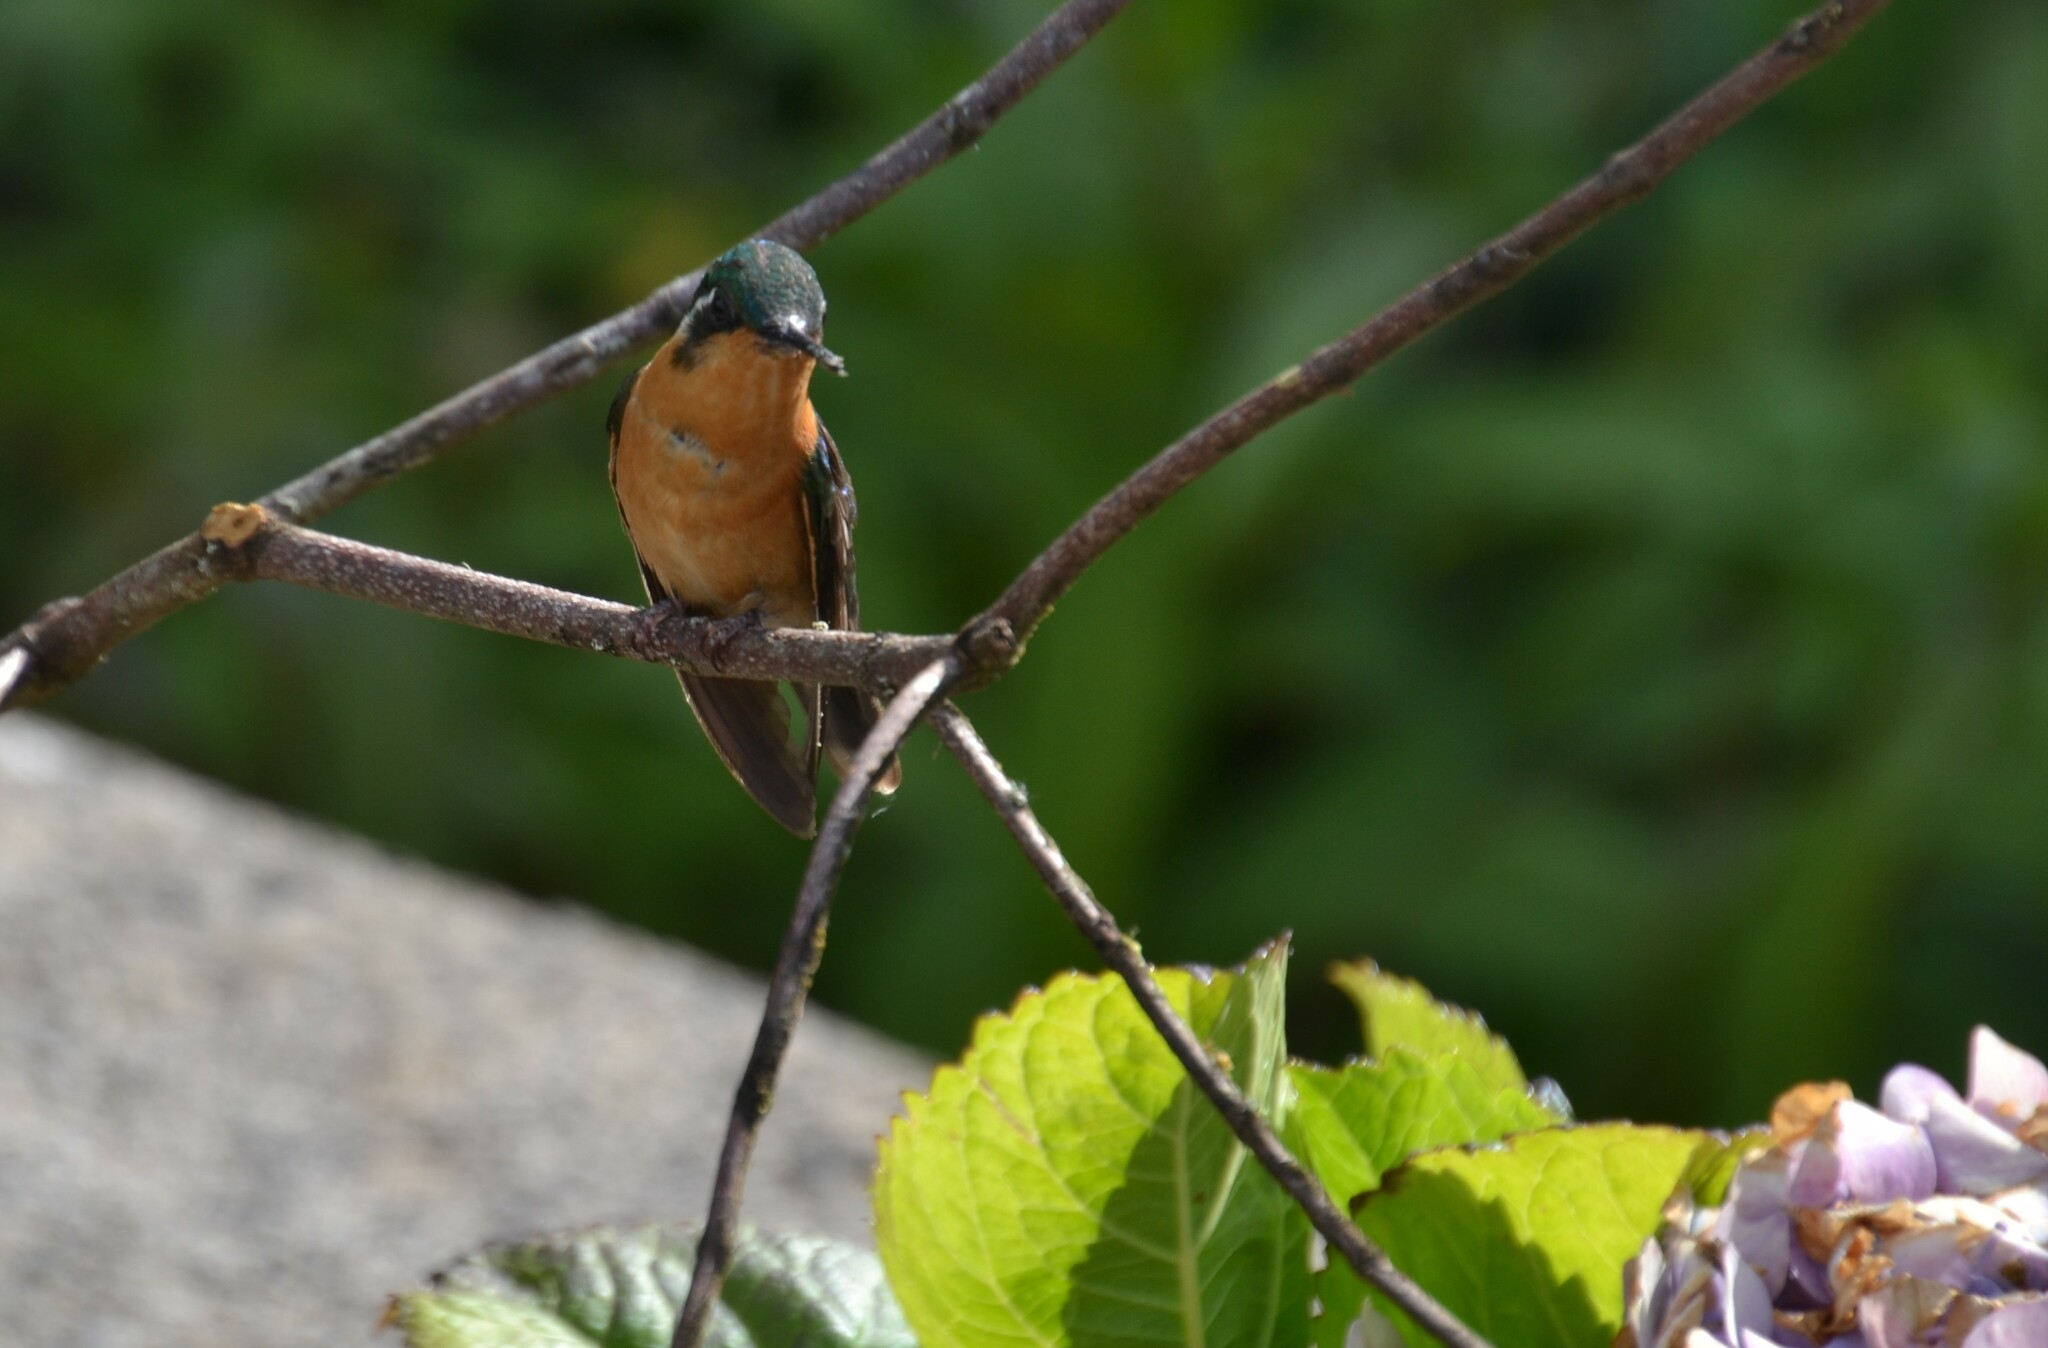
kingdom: Animalia
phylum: Chordata
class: Aves
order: Apodiformes
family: Trochilidae
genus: Lampornis
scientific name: Lampornis castaneoventris
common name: White-throated mountain-gem
